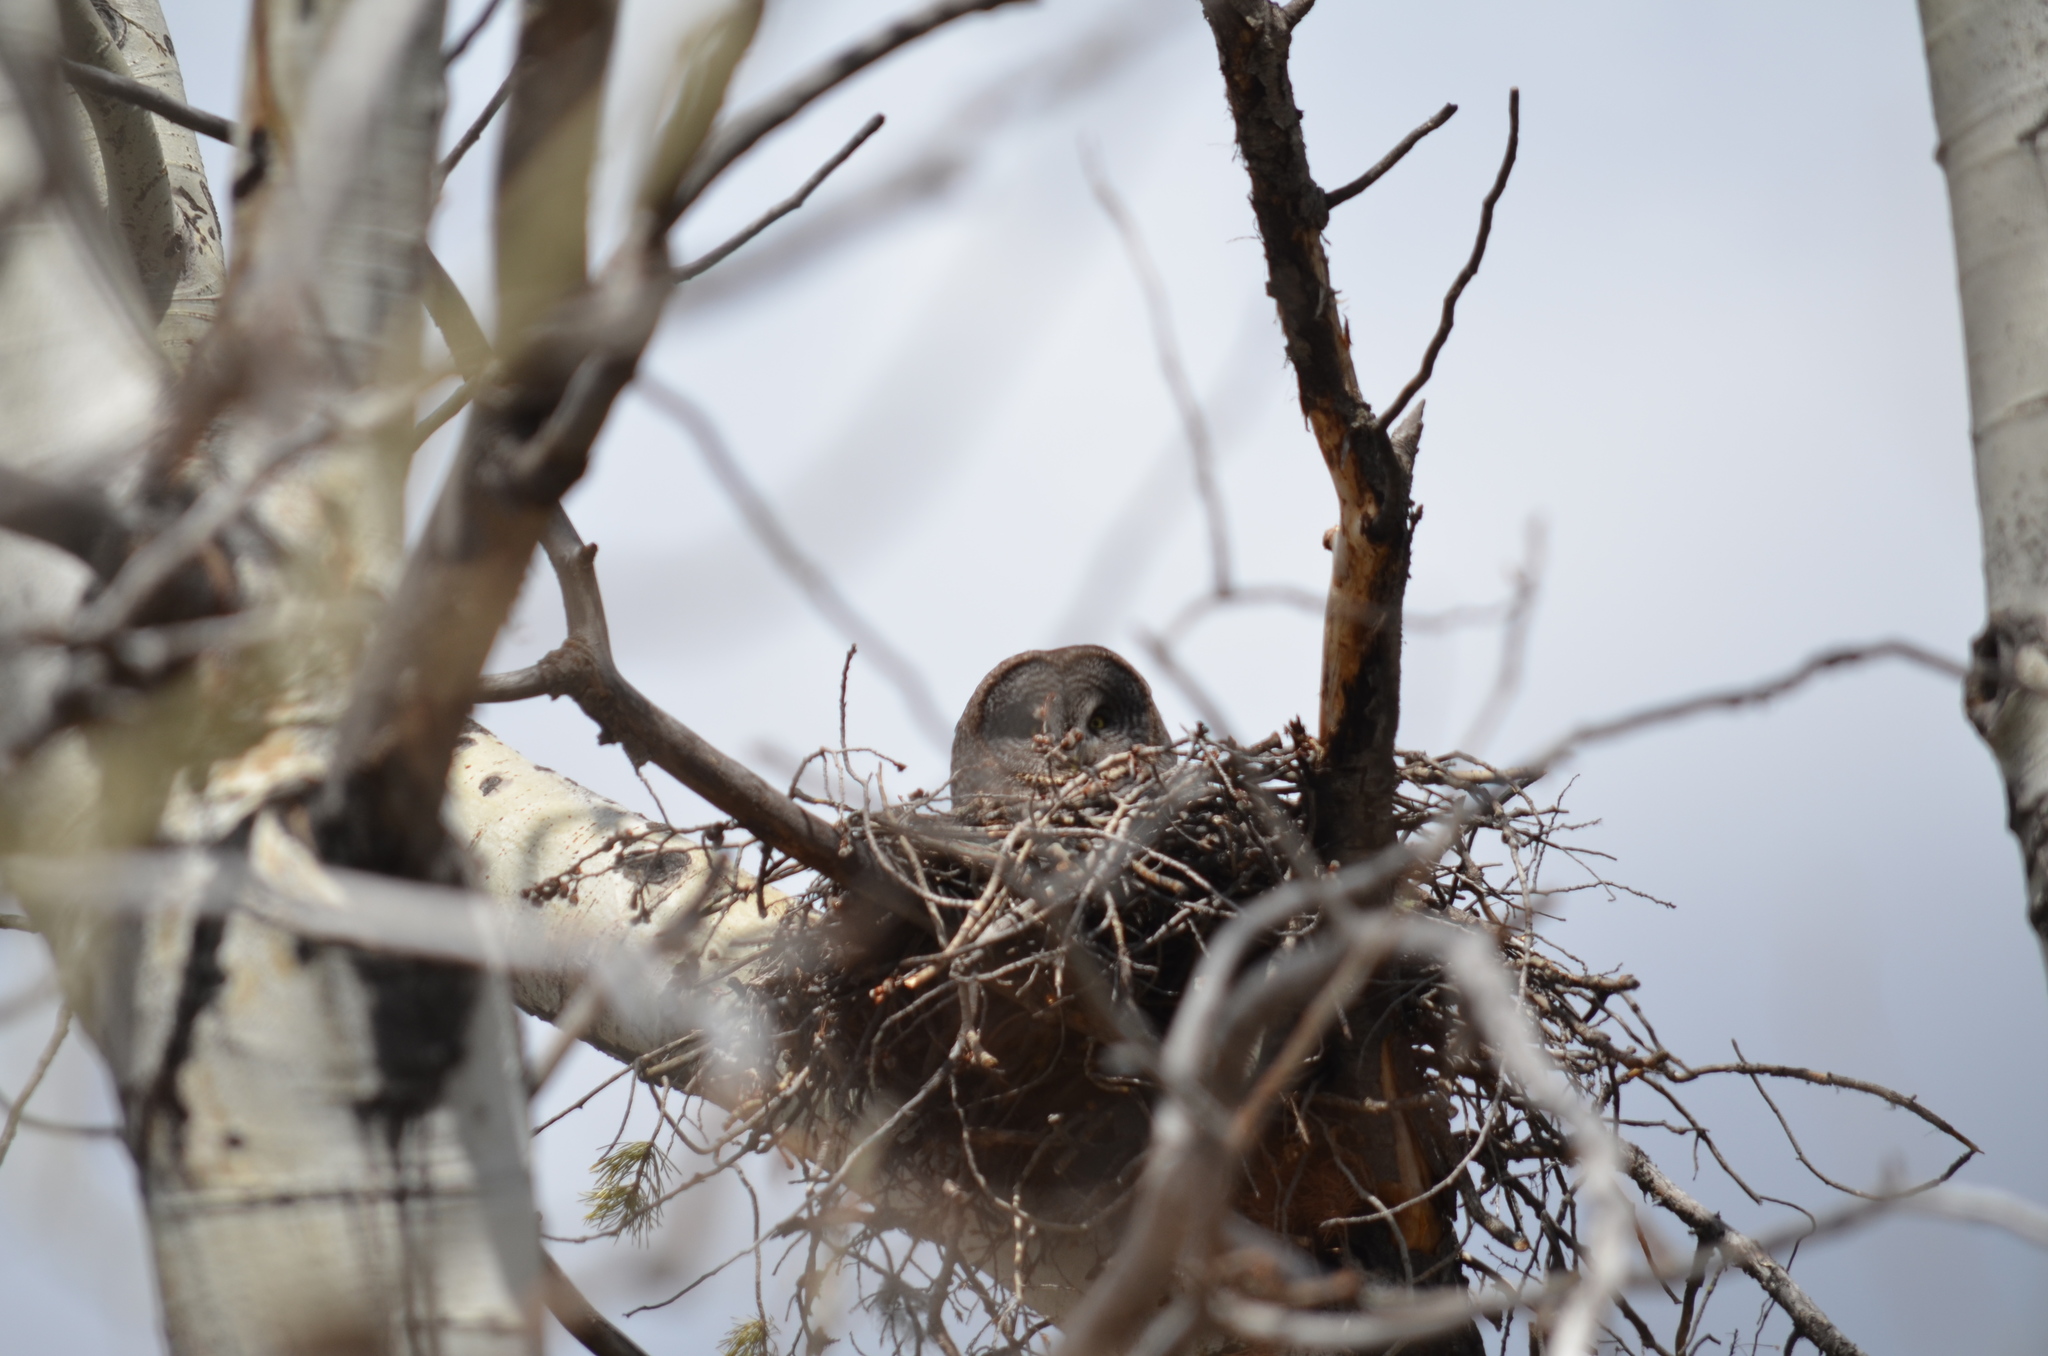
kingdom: Animalia
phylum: Chordata
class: Aves
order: Strigiformes
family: Strigidae
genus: Strix
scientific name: Strix nebulosa
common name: Great grey owl
